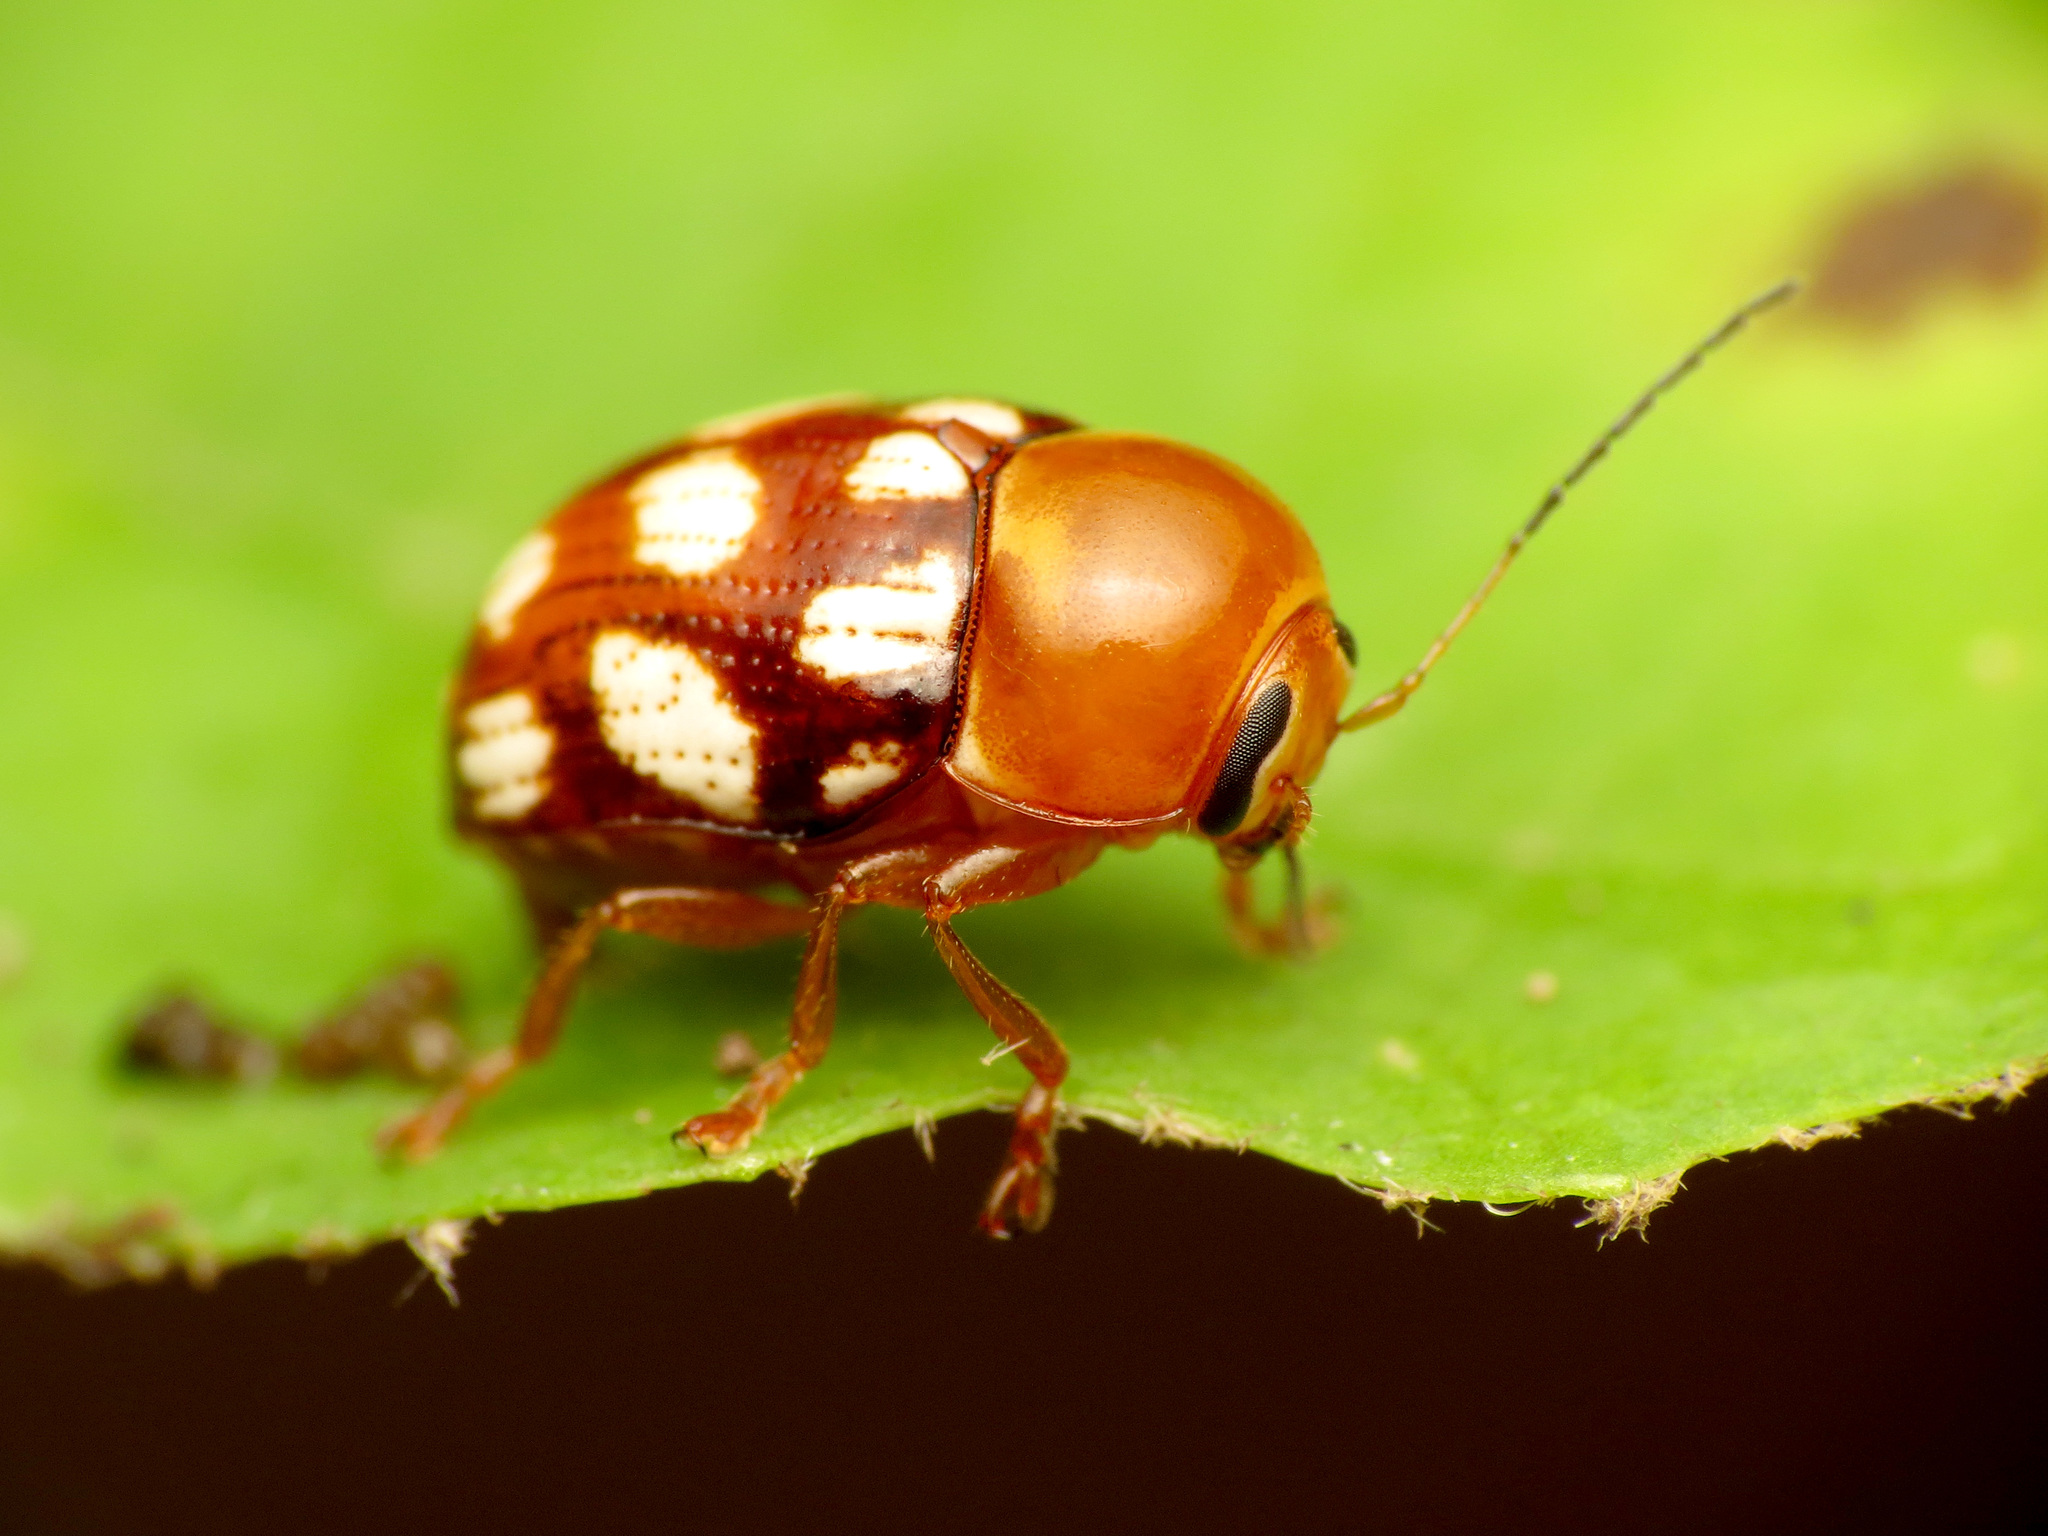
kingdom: Animalia
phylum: Arthropoda
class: Insecta
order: Coleoptera
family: Chrysomelidae
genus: Cryptocephalus
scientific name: Cryptocephalus guttulatus
